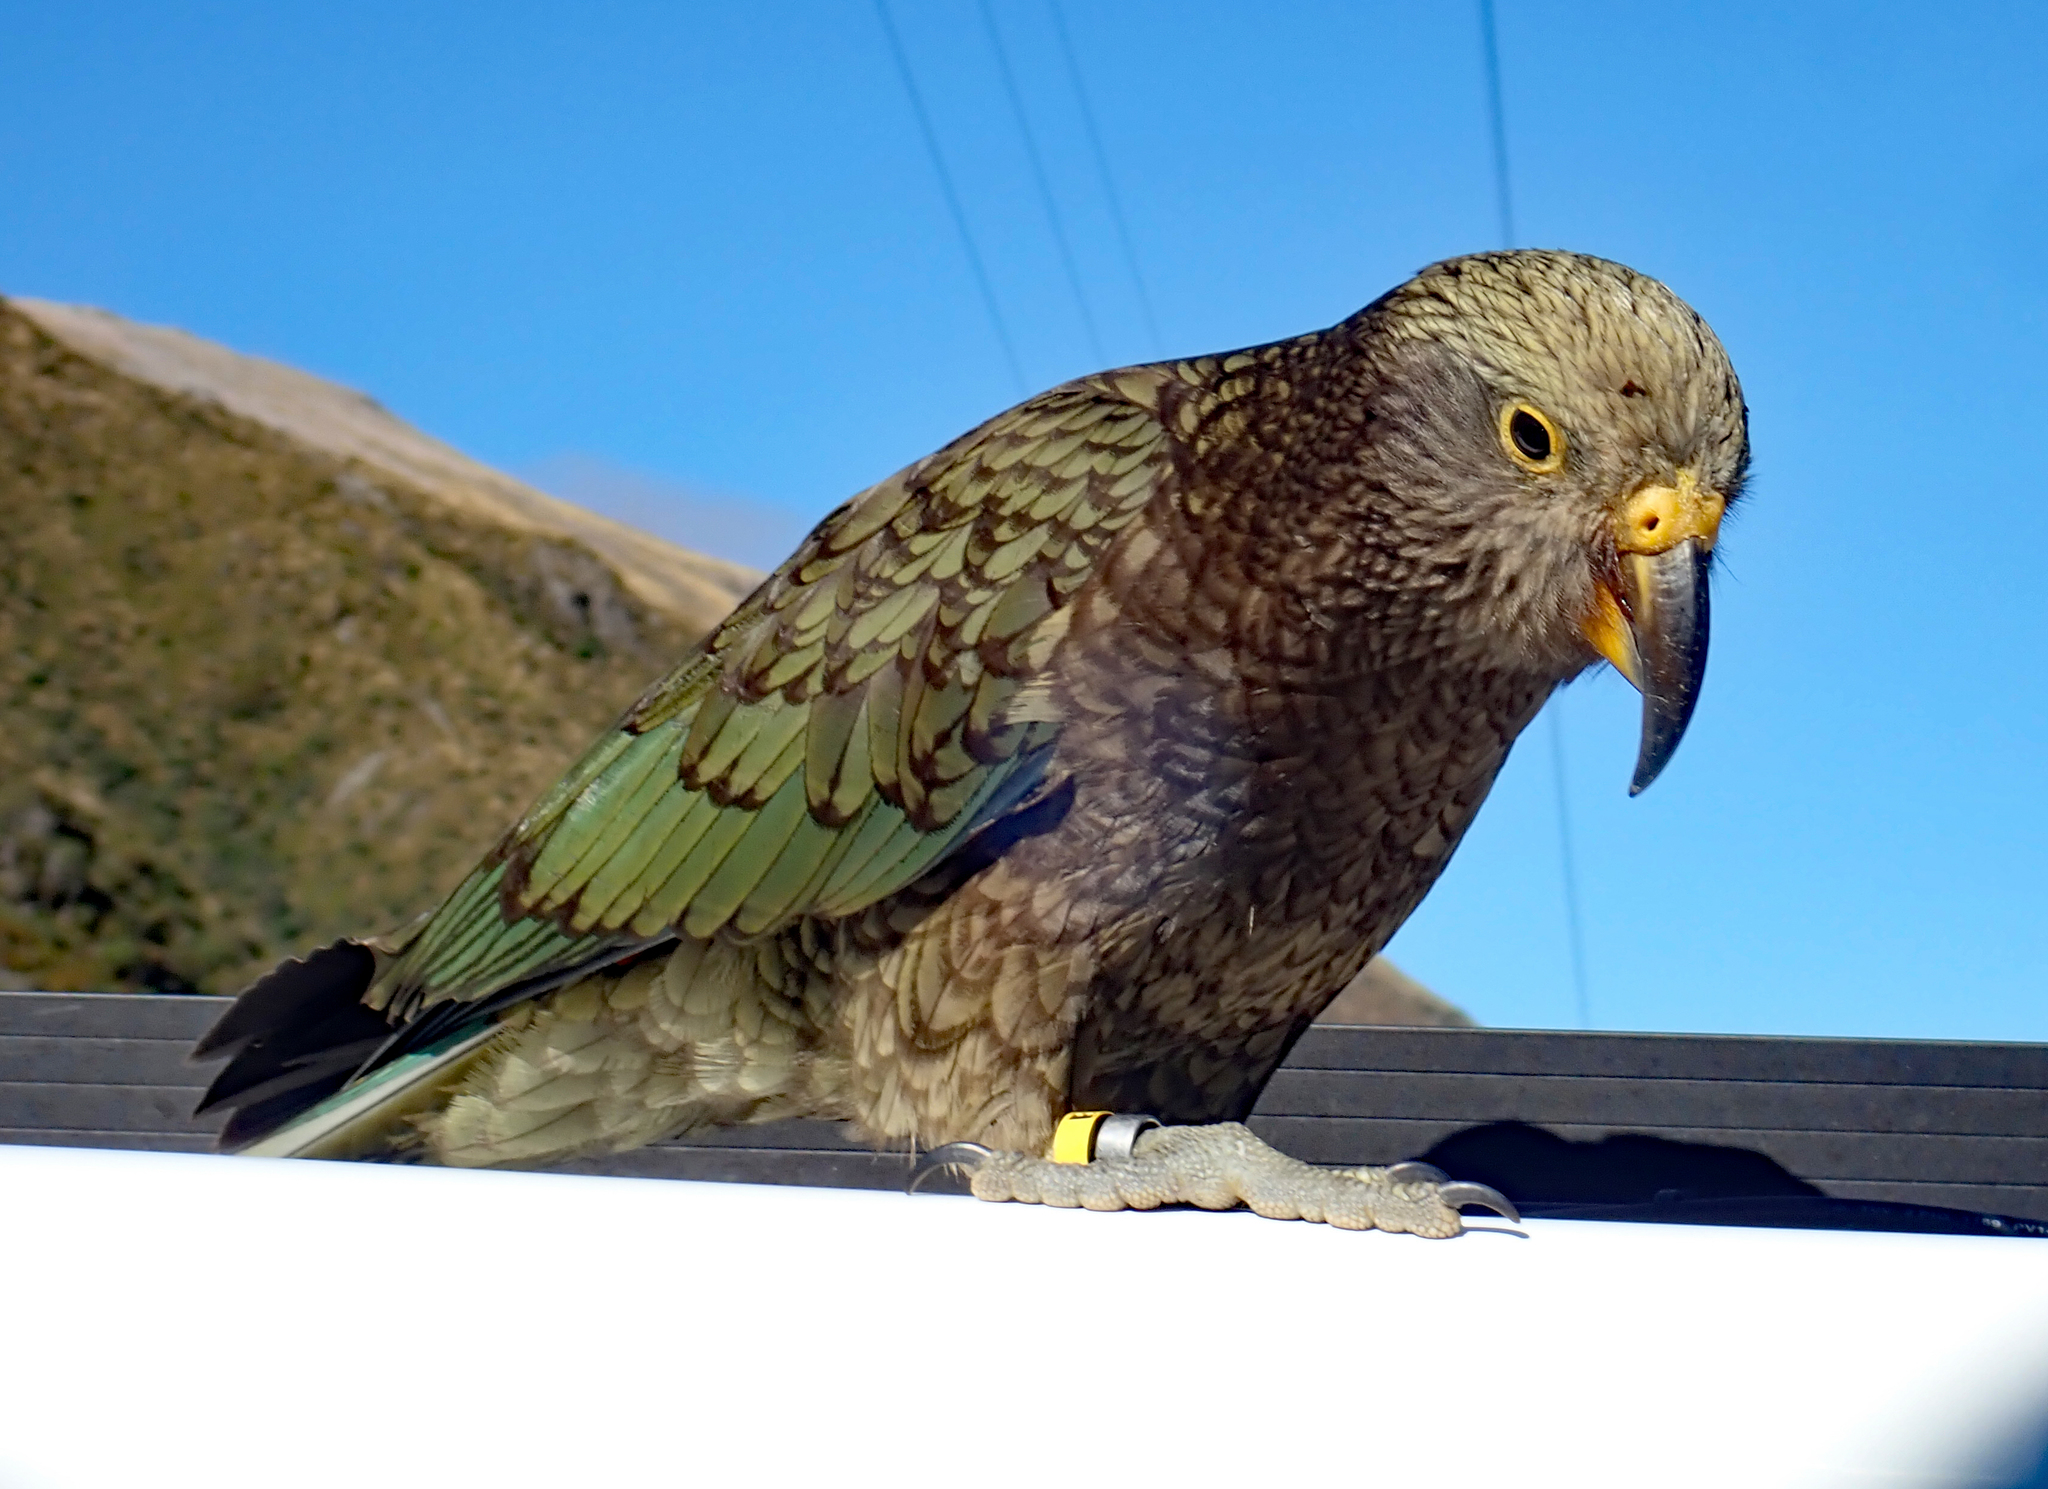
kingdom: Animalia
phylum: Chordata
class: Aves
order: Psittaciformes
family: Psittacidae
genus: Nestor
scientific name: Nestor notabilis
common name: Kea
